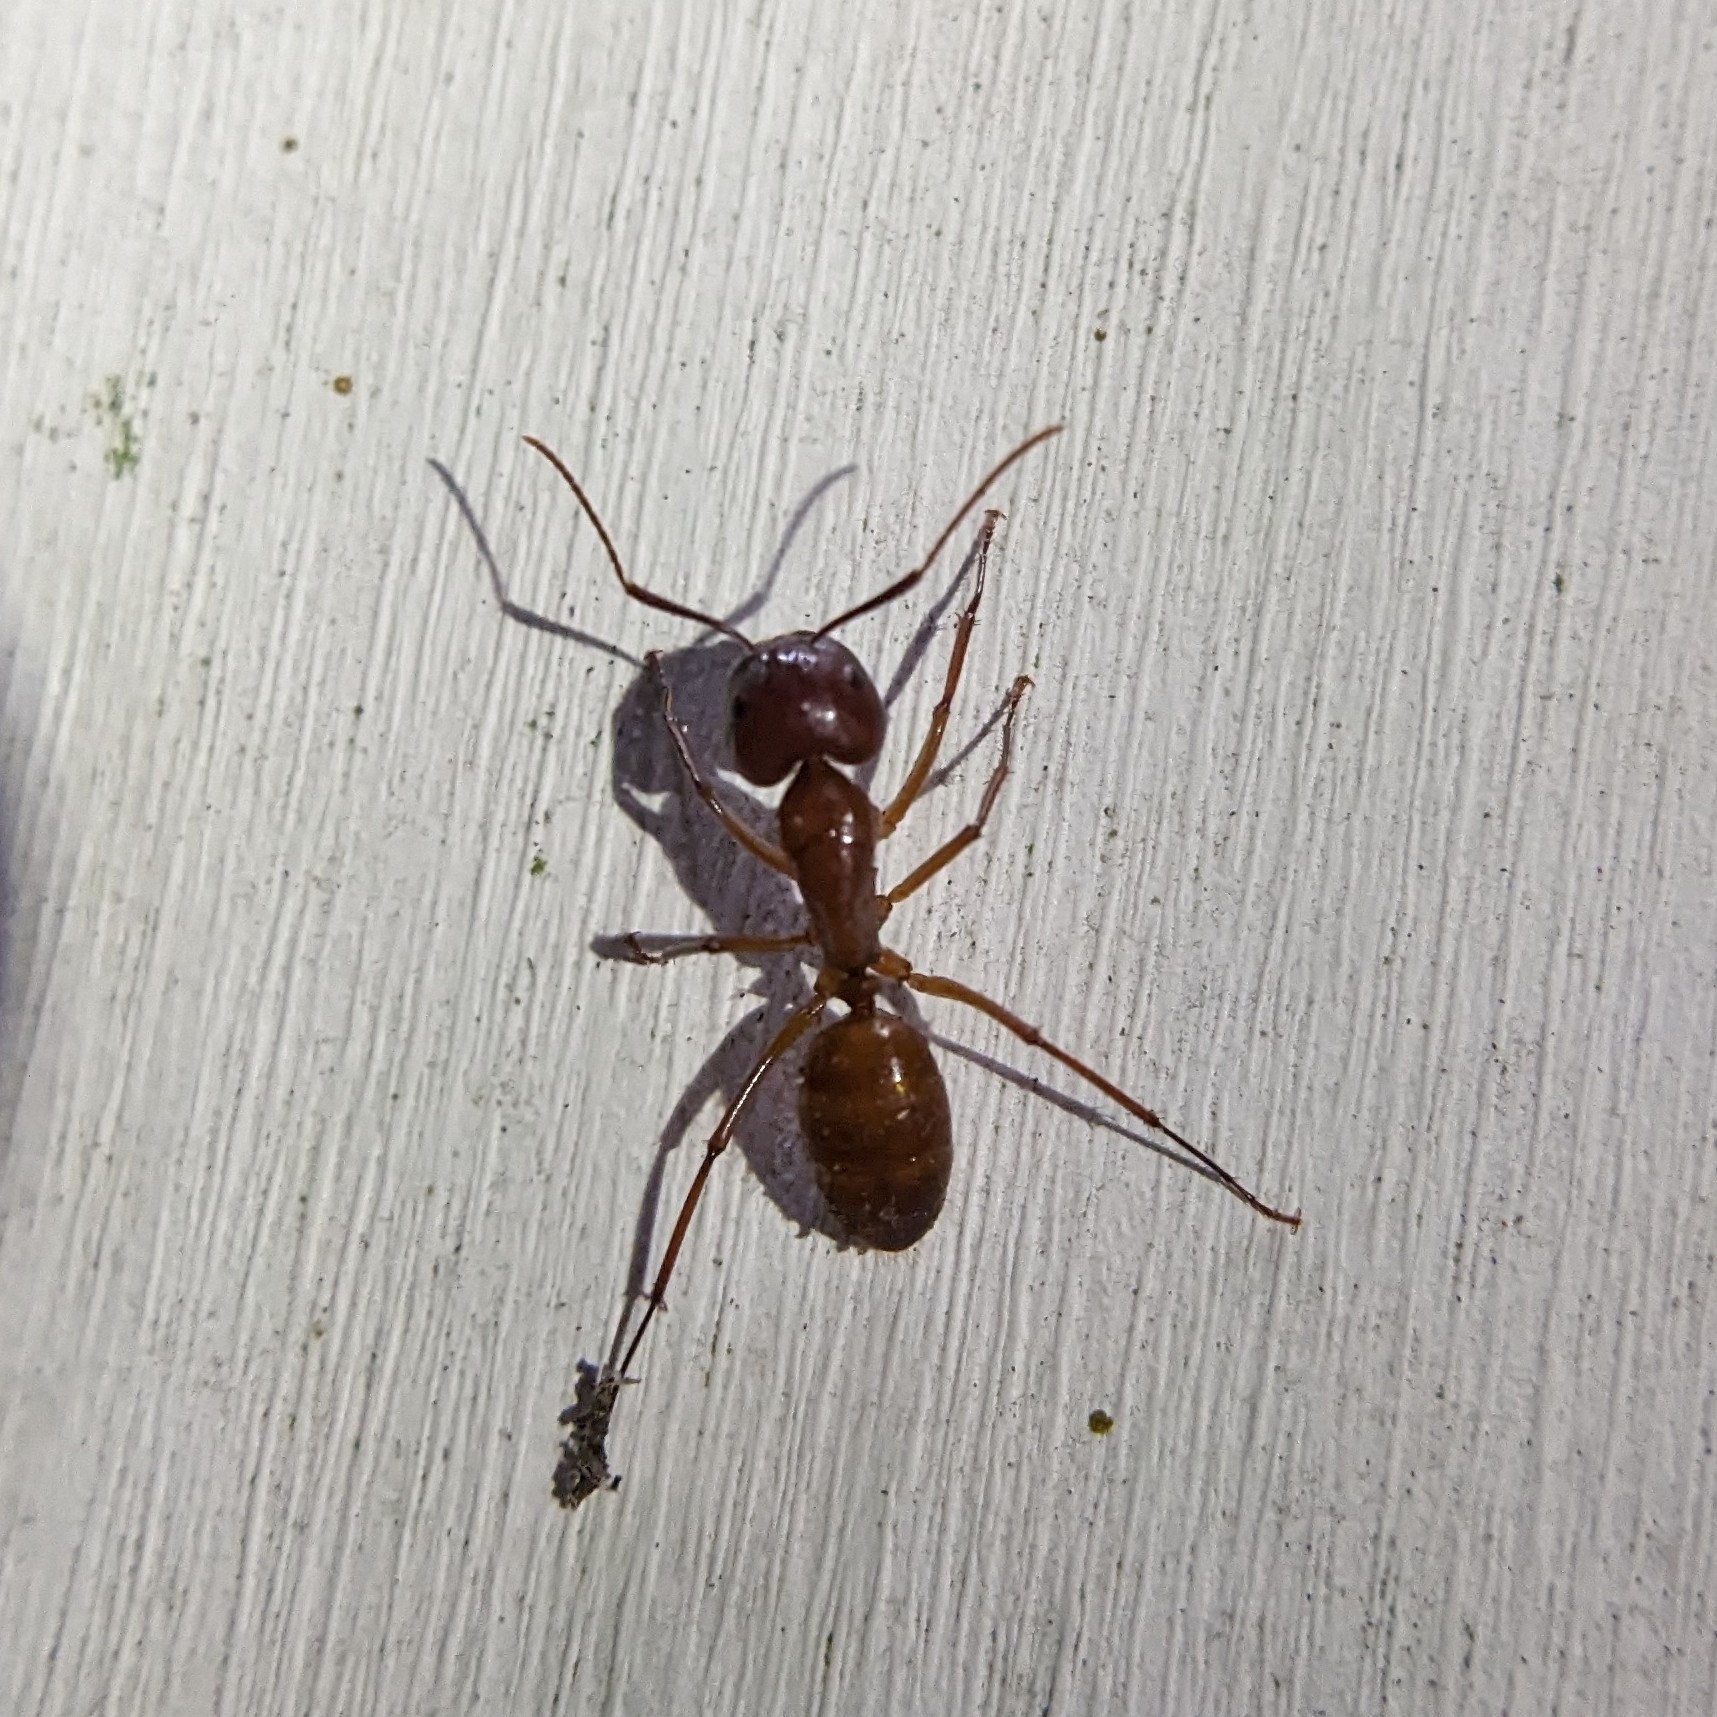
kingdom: Animalia
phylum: Arthropoda
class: Insecta
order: Hymenoptera
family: Formicidae
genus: Camponotus
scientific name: Camponotus castaneus
